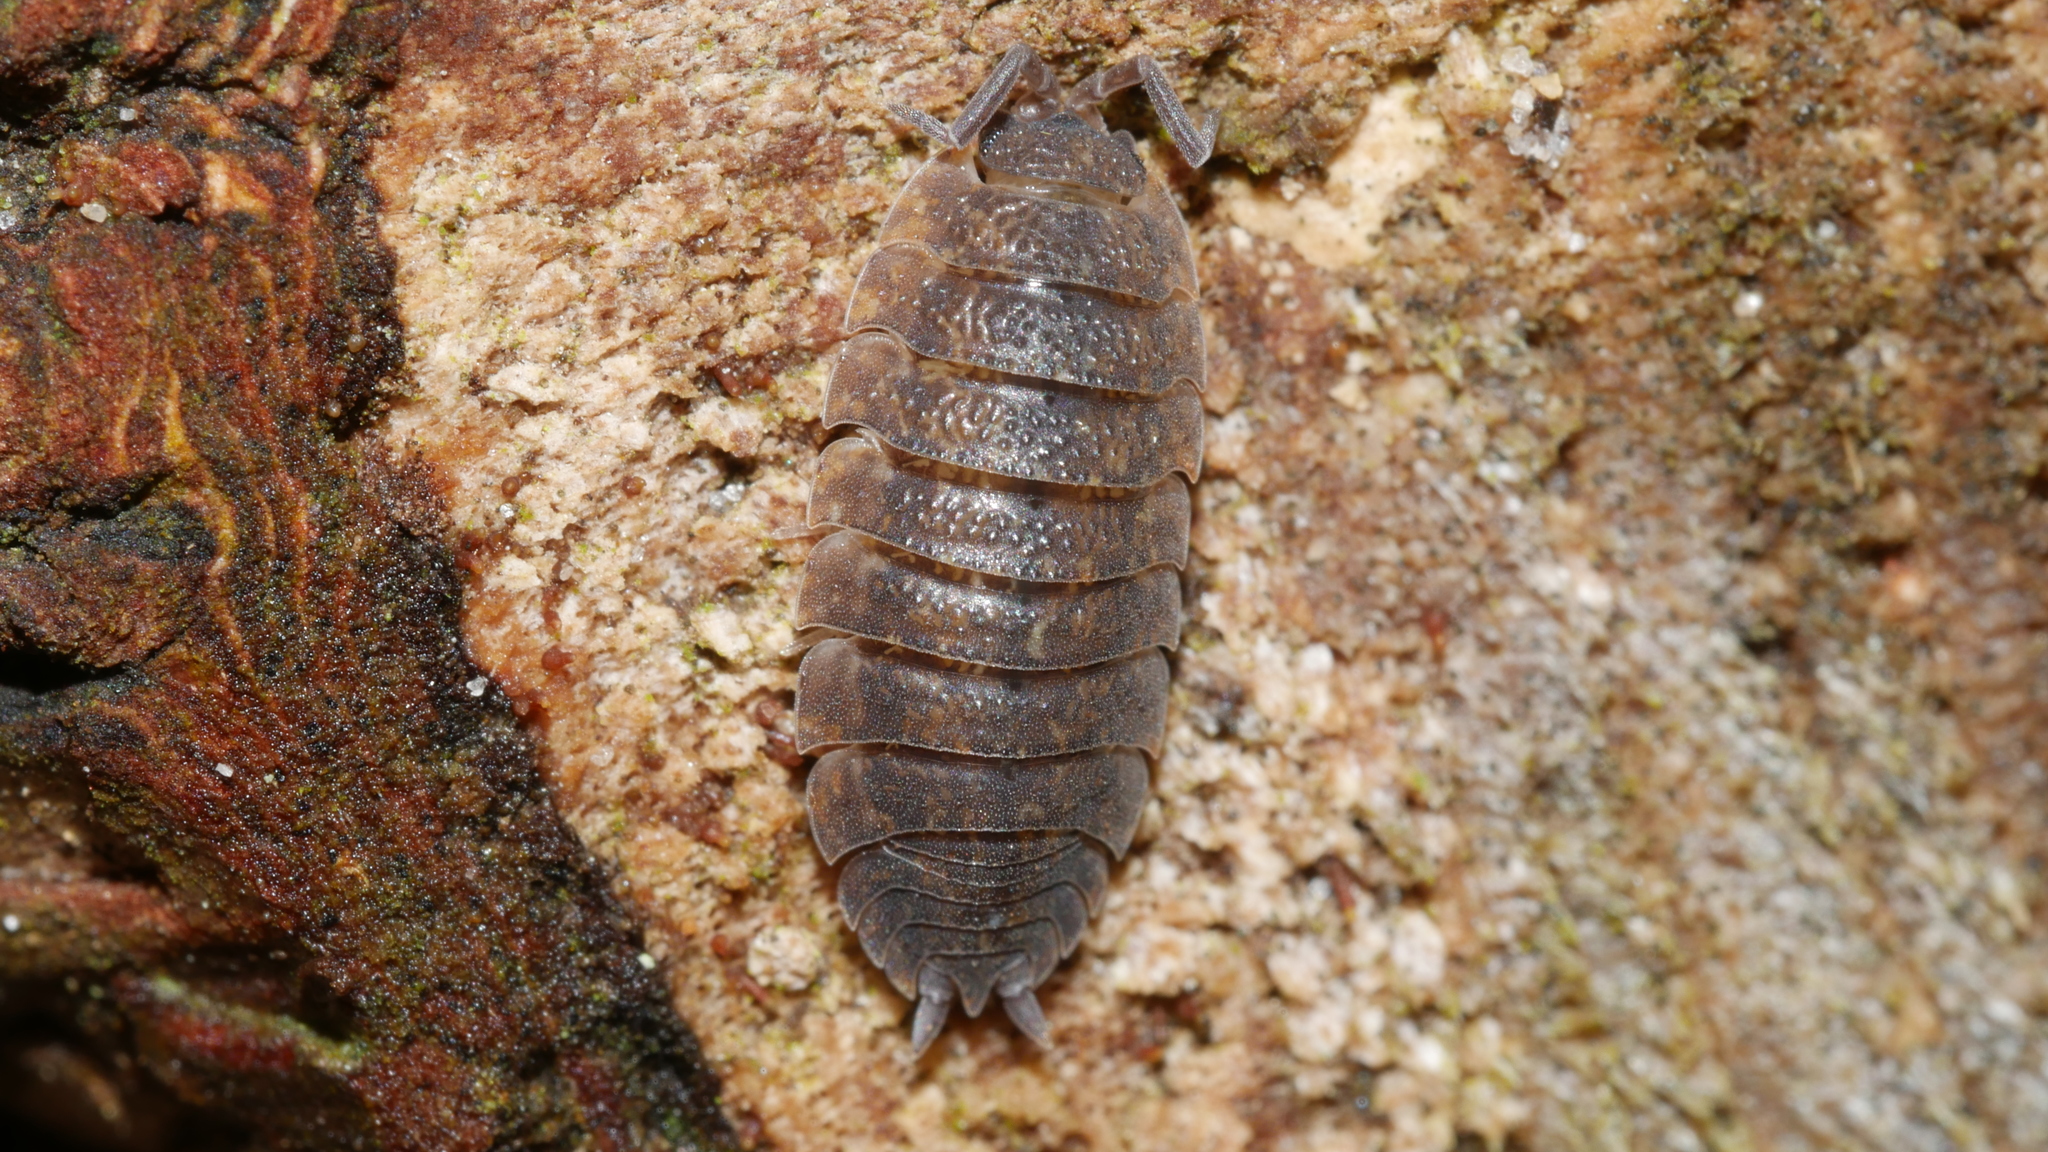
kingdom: Animalia
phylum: Arthropoda
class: Malacostraca
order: Isopoda
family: Porcellionidae
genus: Porcellio
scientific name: Porcellio scaber
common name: Common rough woodlouse
